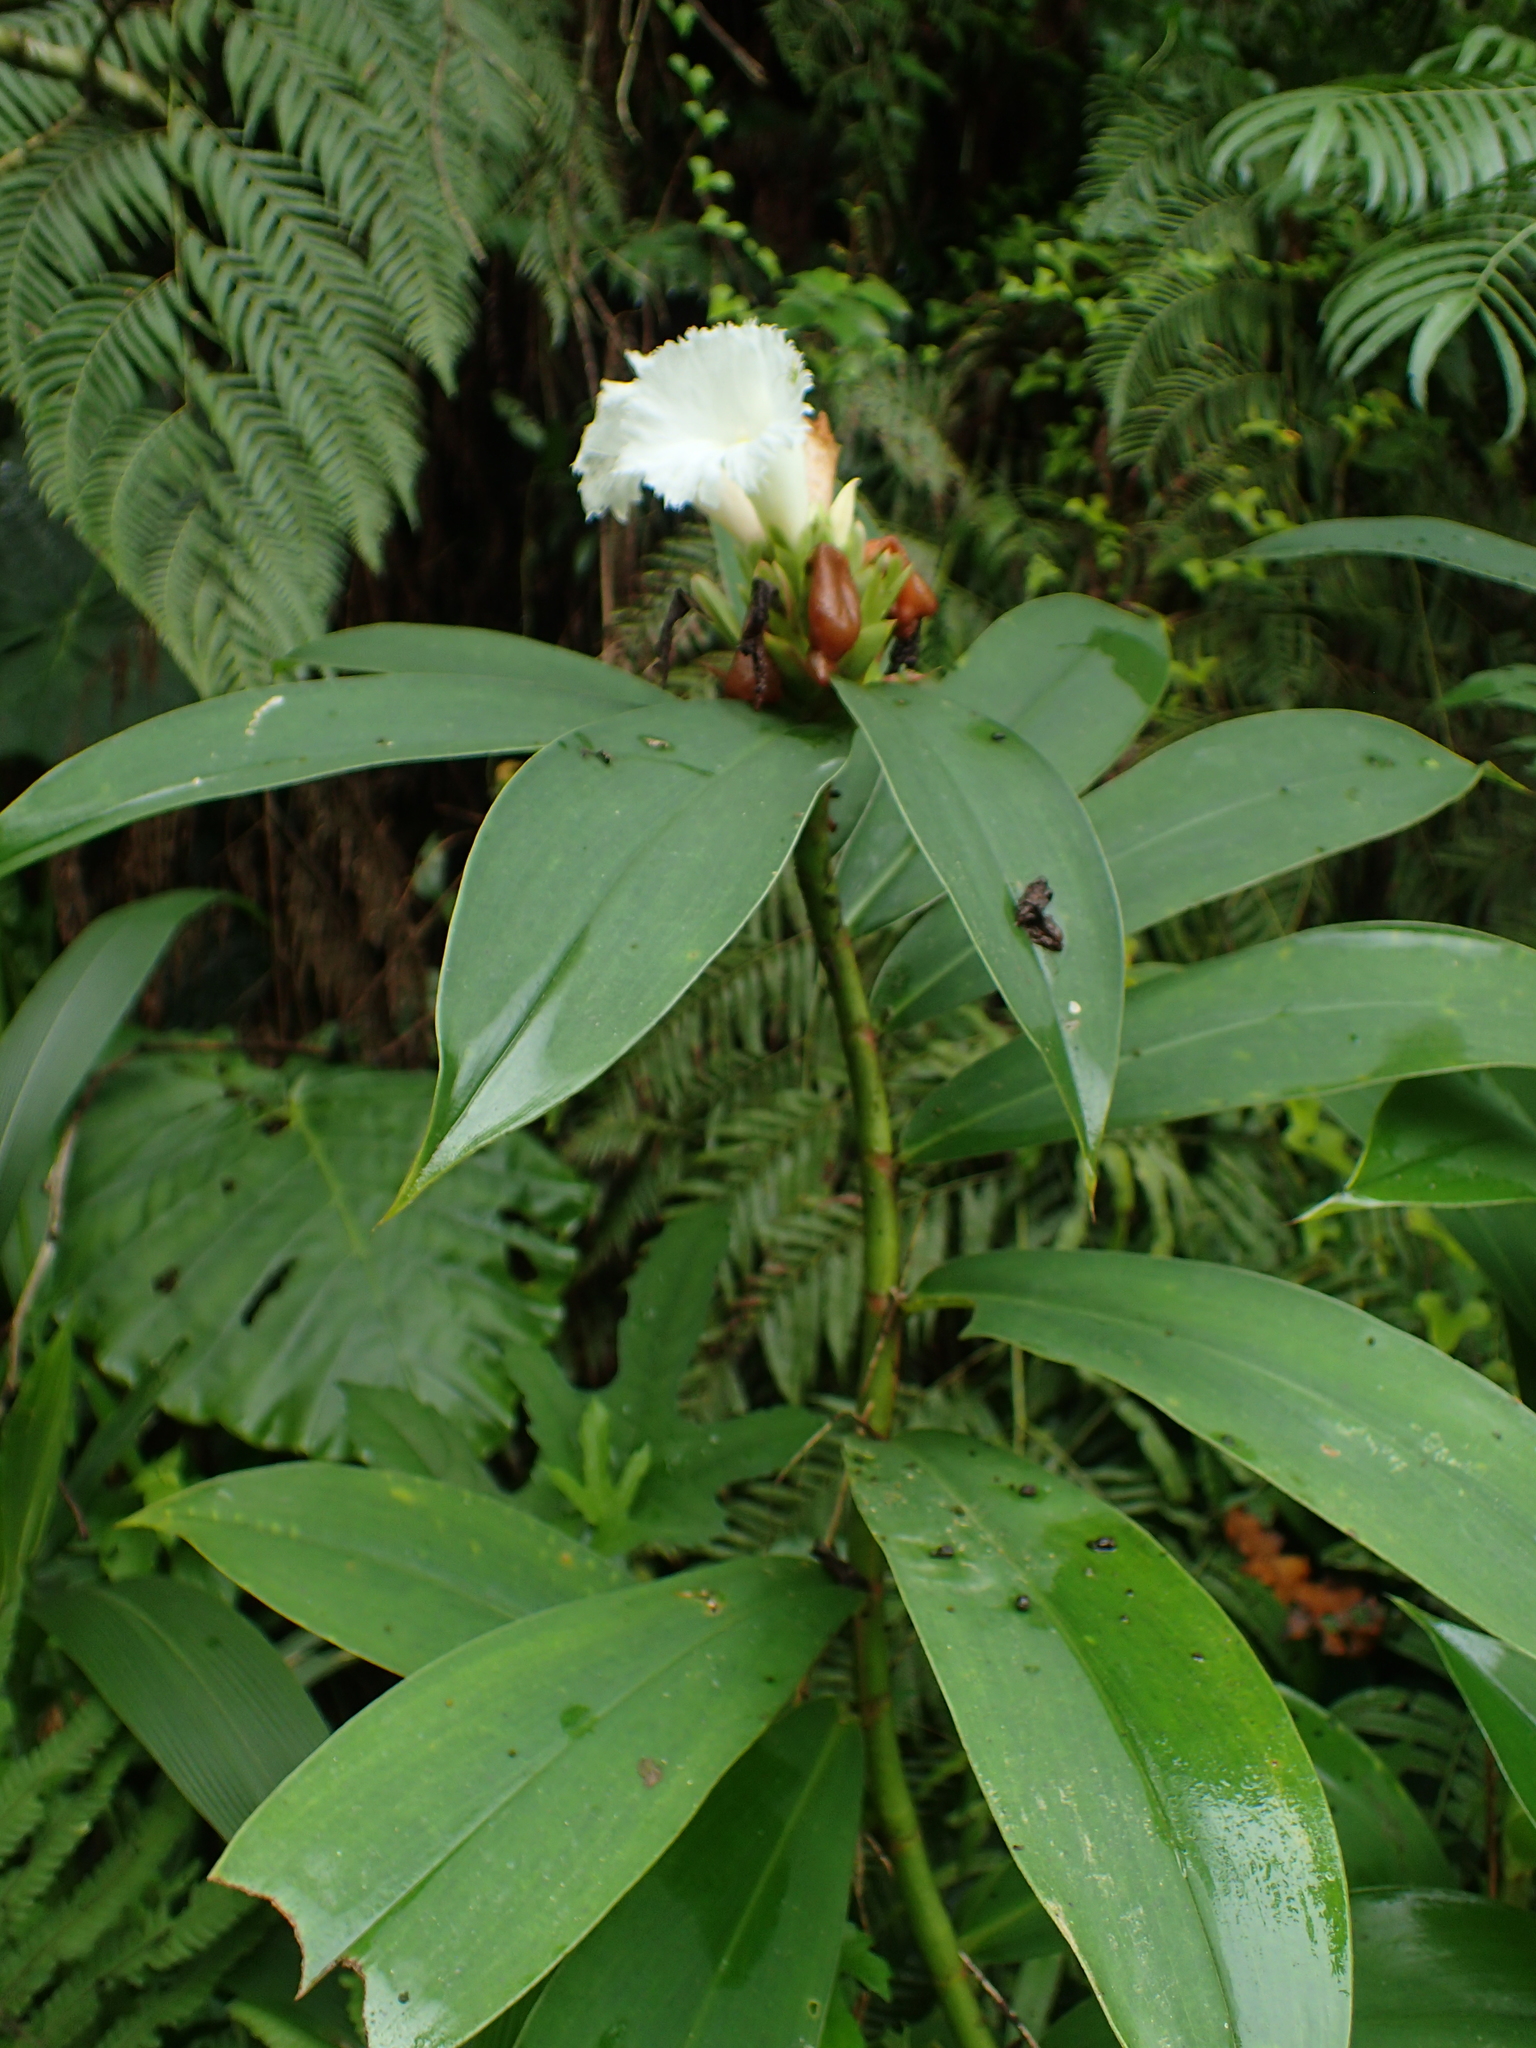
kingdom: Plantae
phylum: Tracheophyta
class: Liliopsida
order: Zingiberales
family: Costaceae
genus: Hellenia
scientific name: Hellenia speciosa
